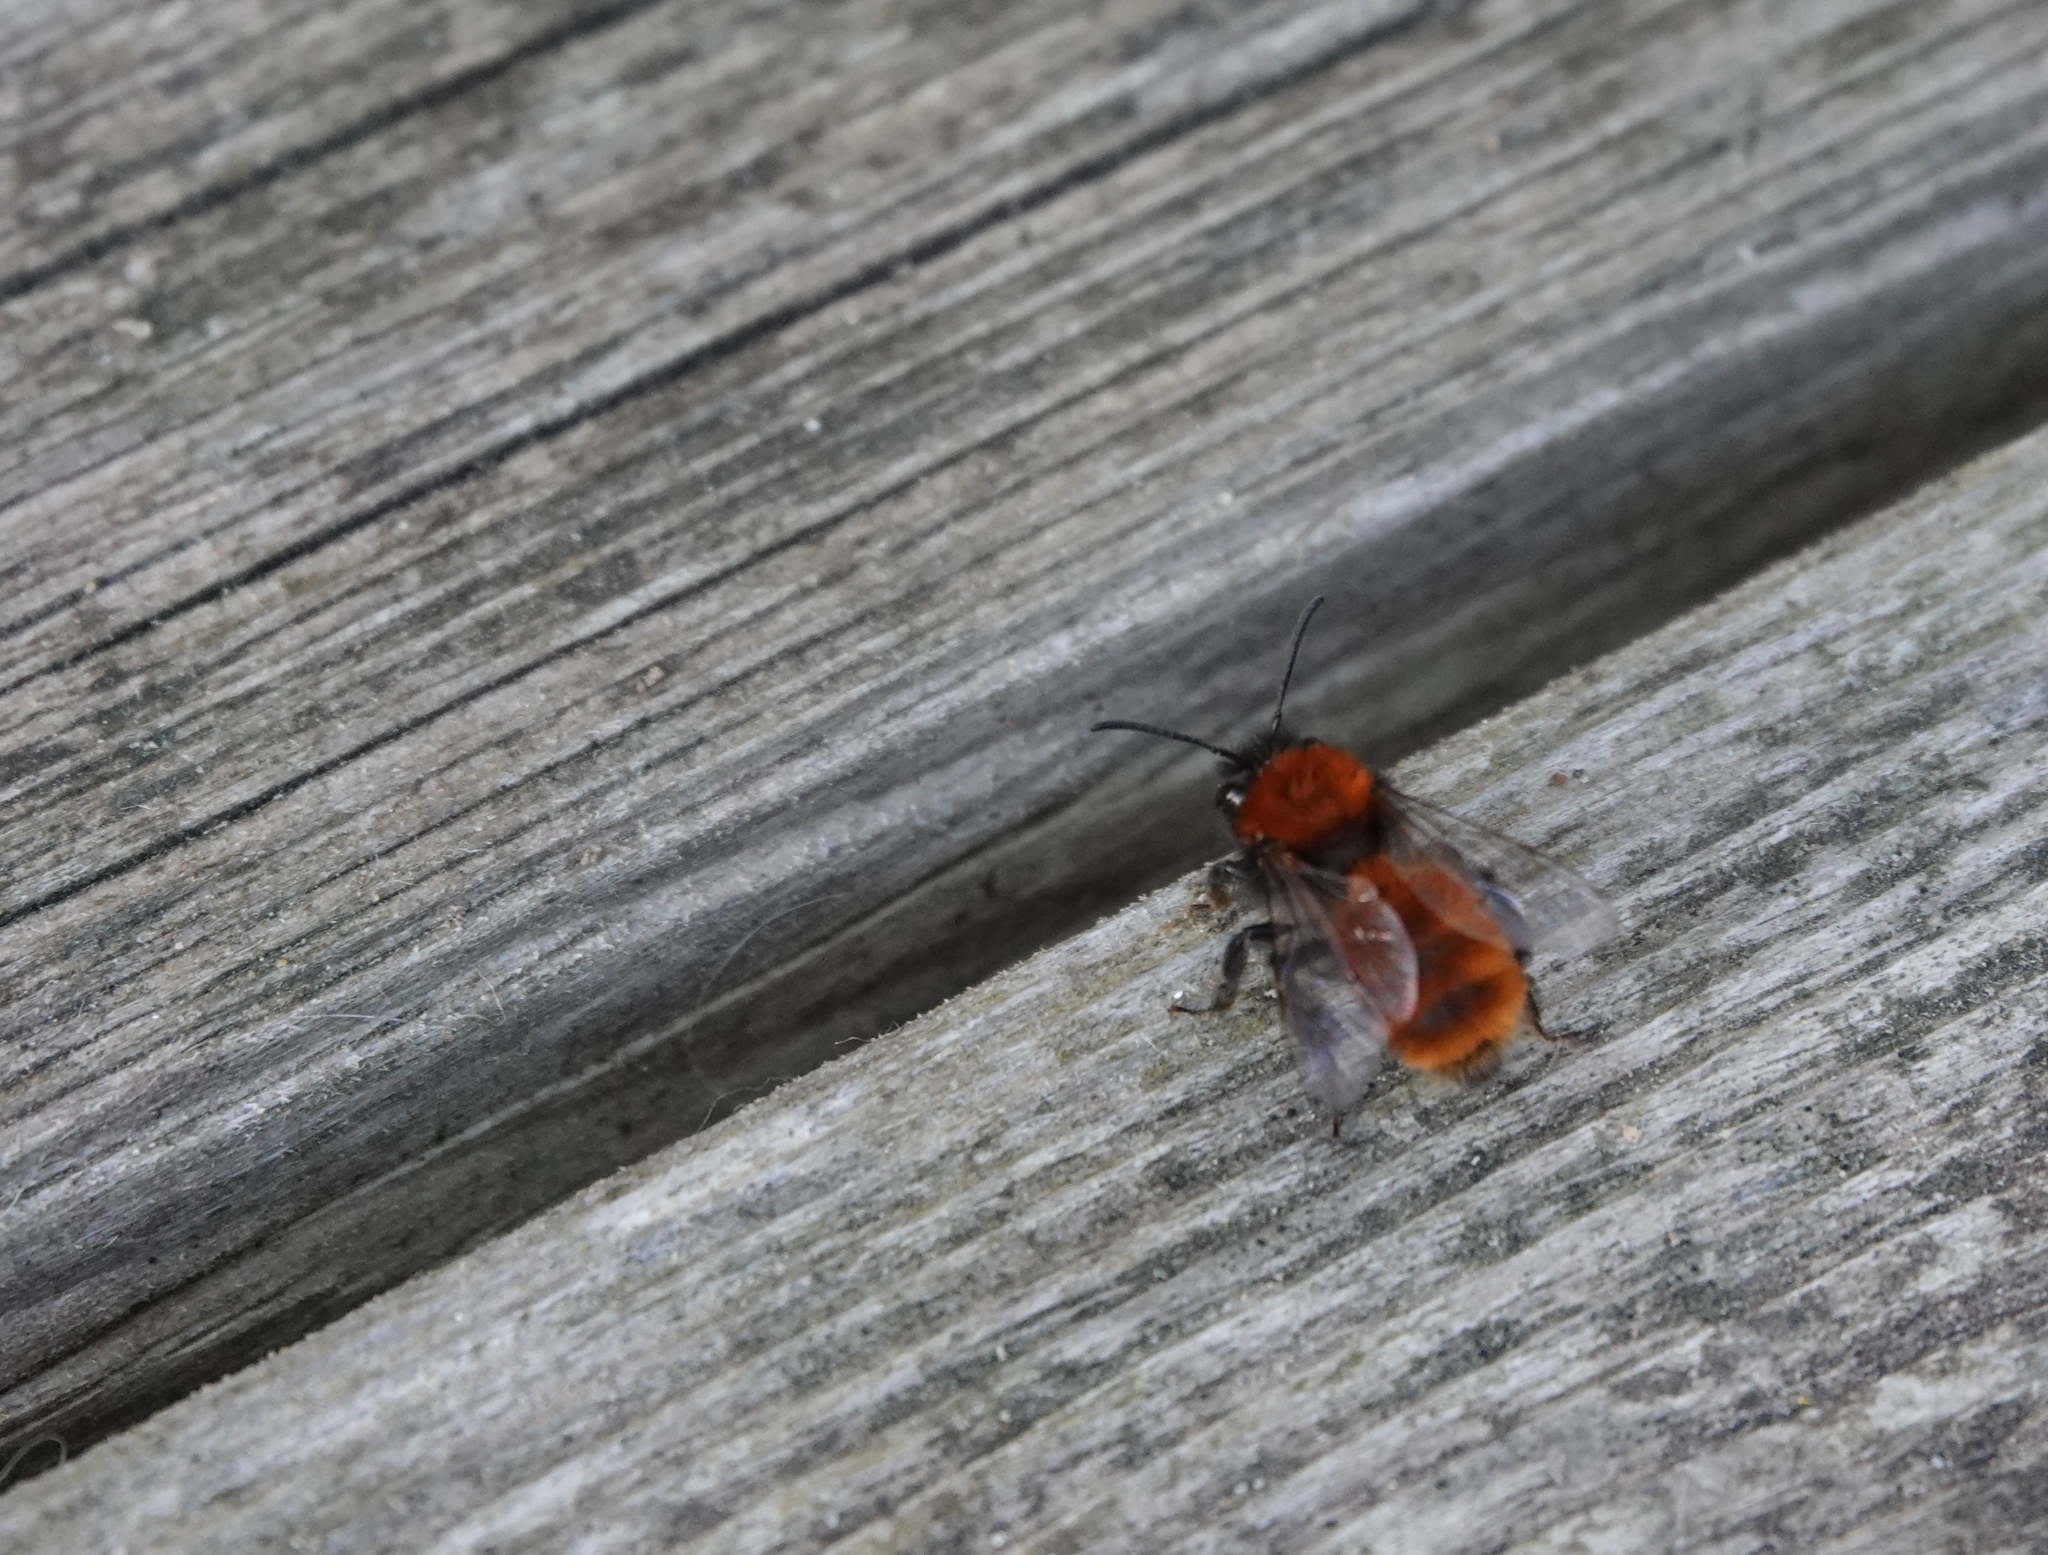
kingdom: Animalia
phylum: Arthropoda
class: Insecta
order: Hymenoptera
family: Andrenidae
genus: Andrena
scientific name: Andrena fulva
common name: Tawny mining bee
